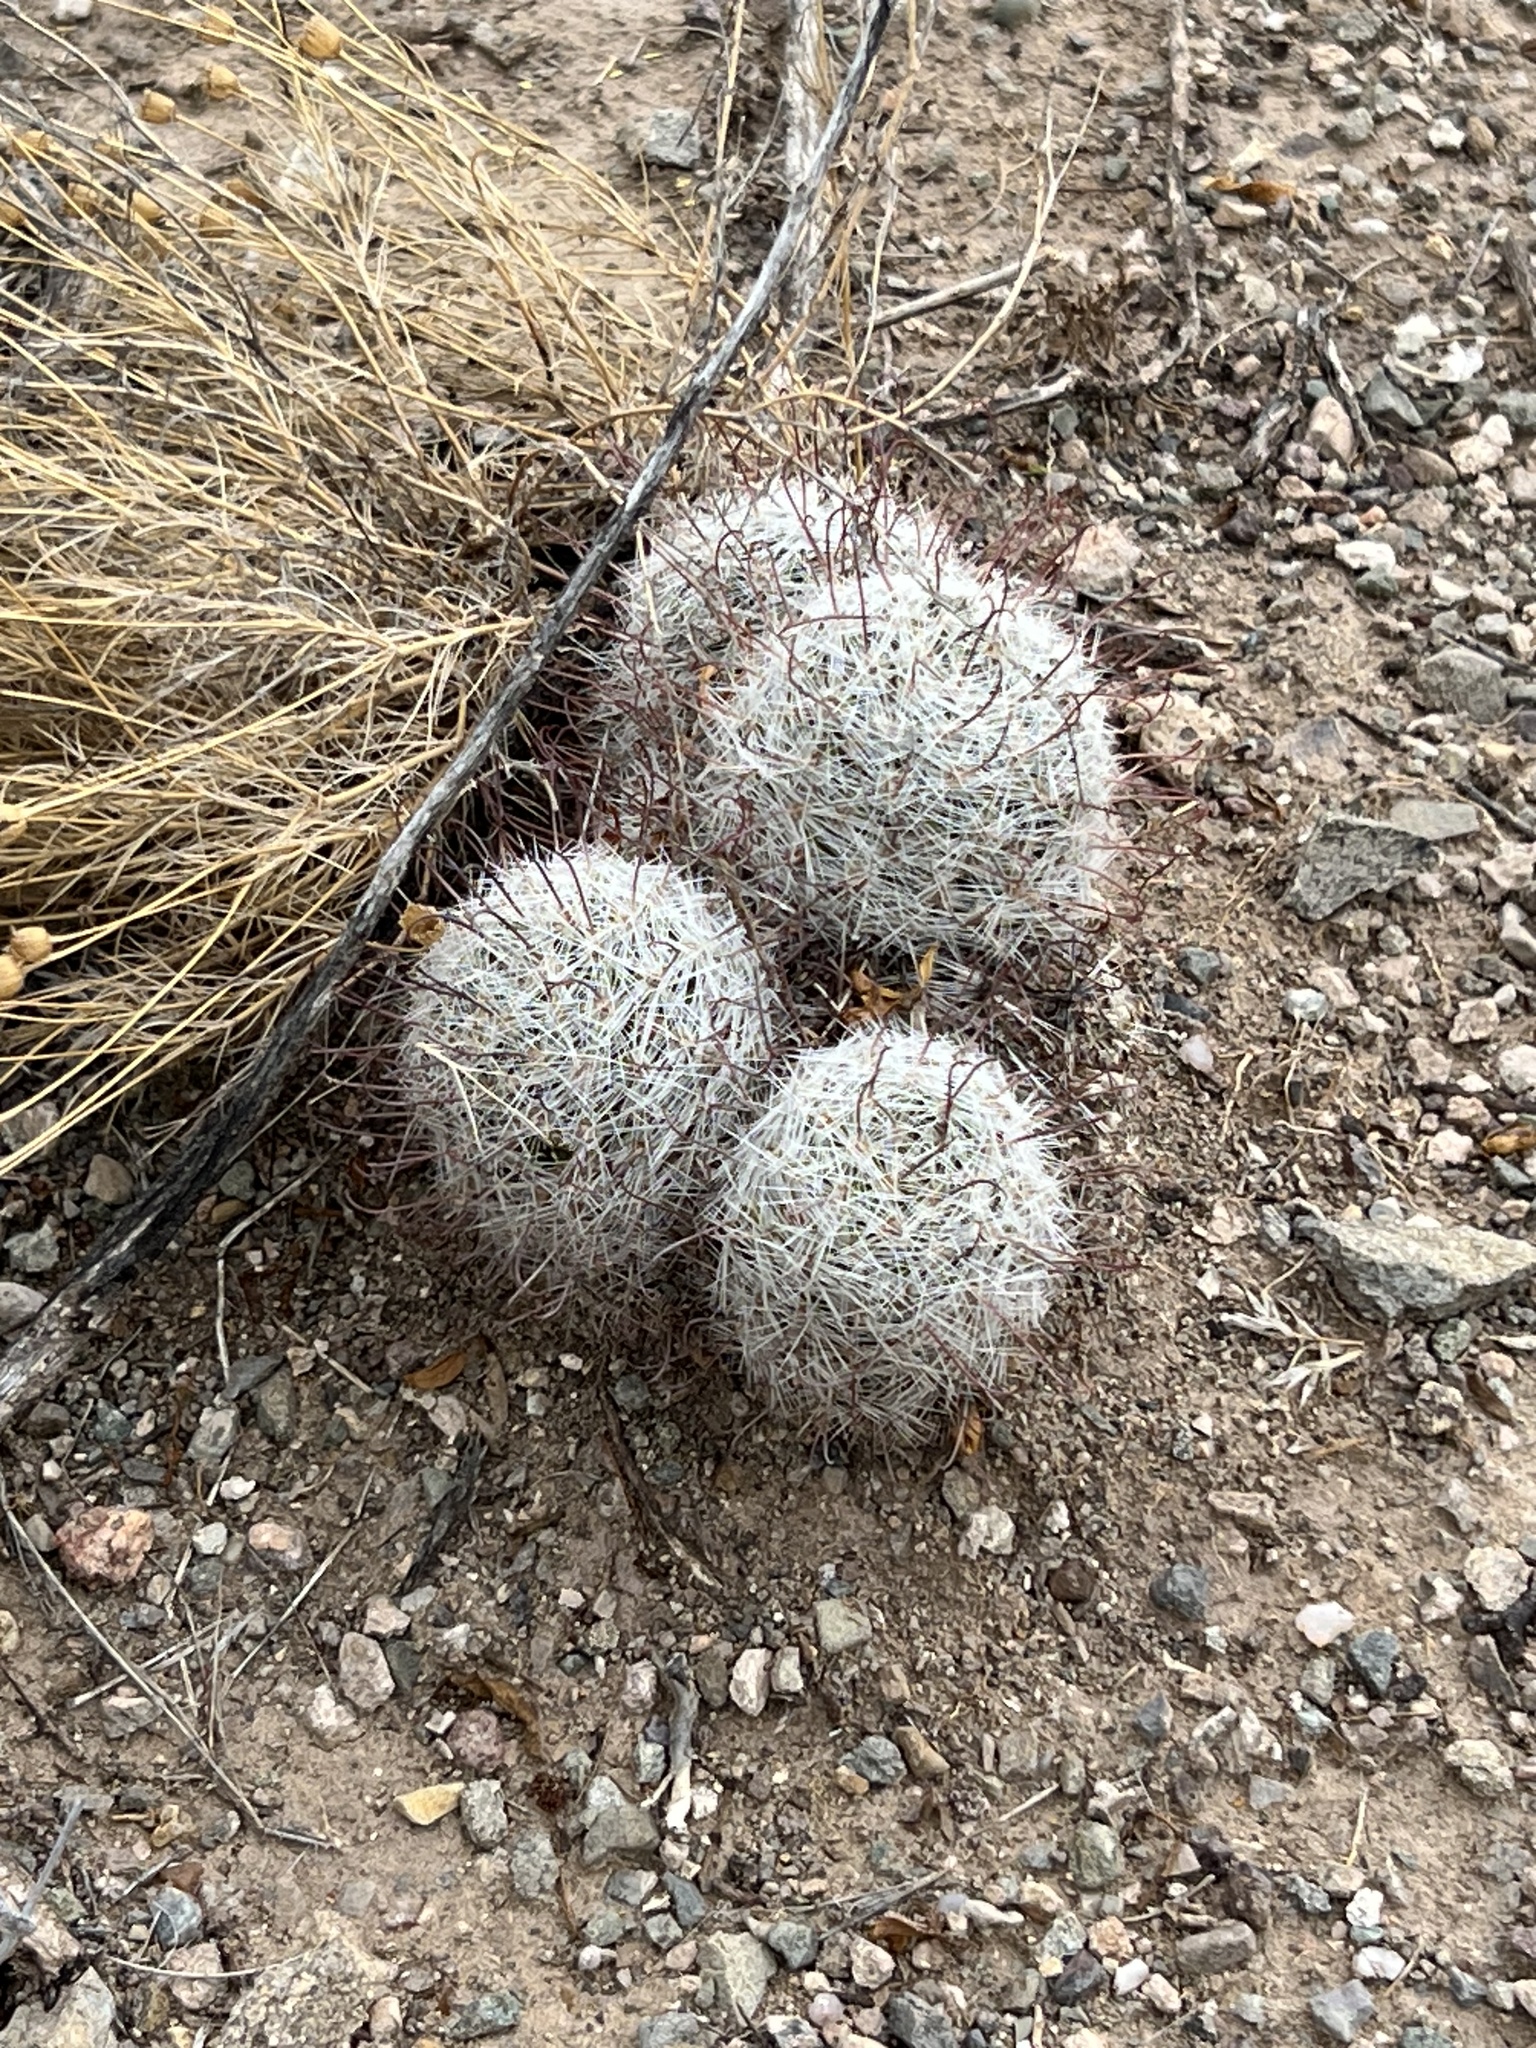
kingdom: Plantae
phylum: Tracheophyta
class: Magnoliopsida
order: Caryophyllales
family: Cactaceae
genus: Cochemiea
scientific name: Cochemiea grahamii
